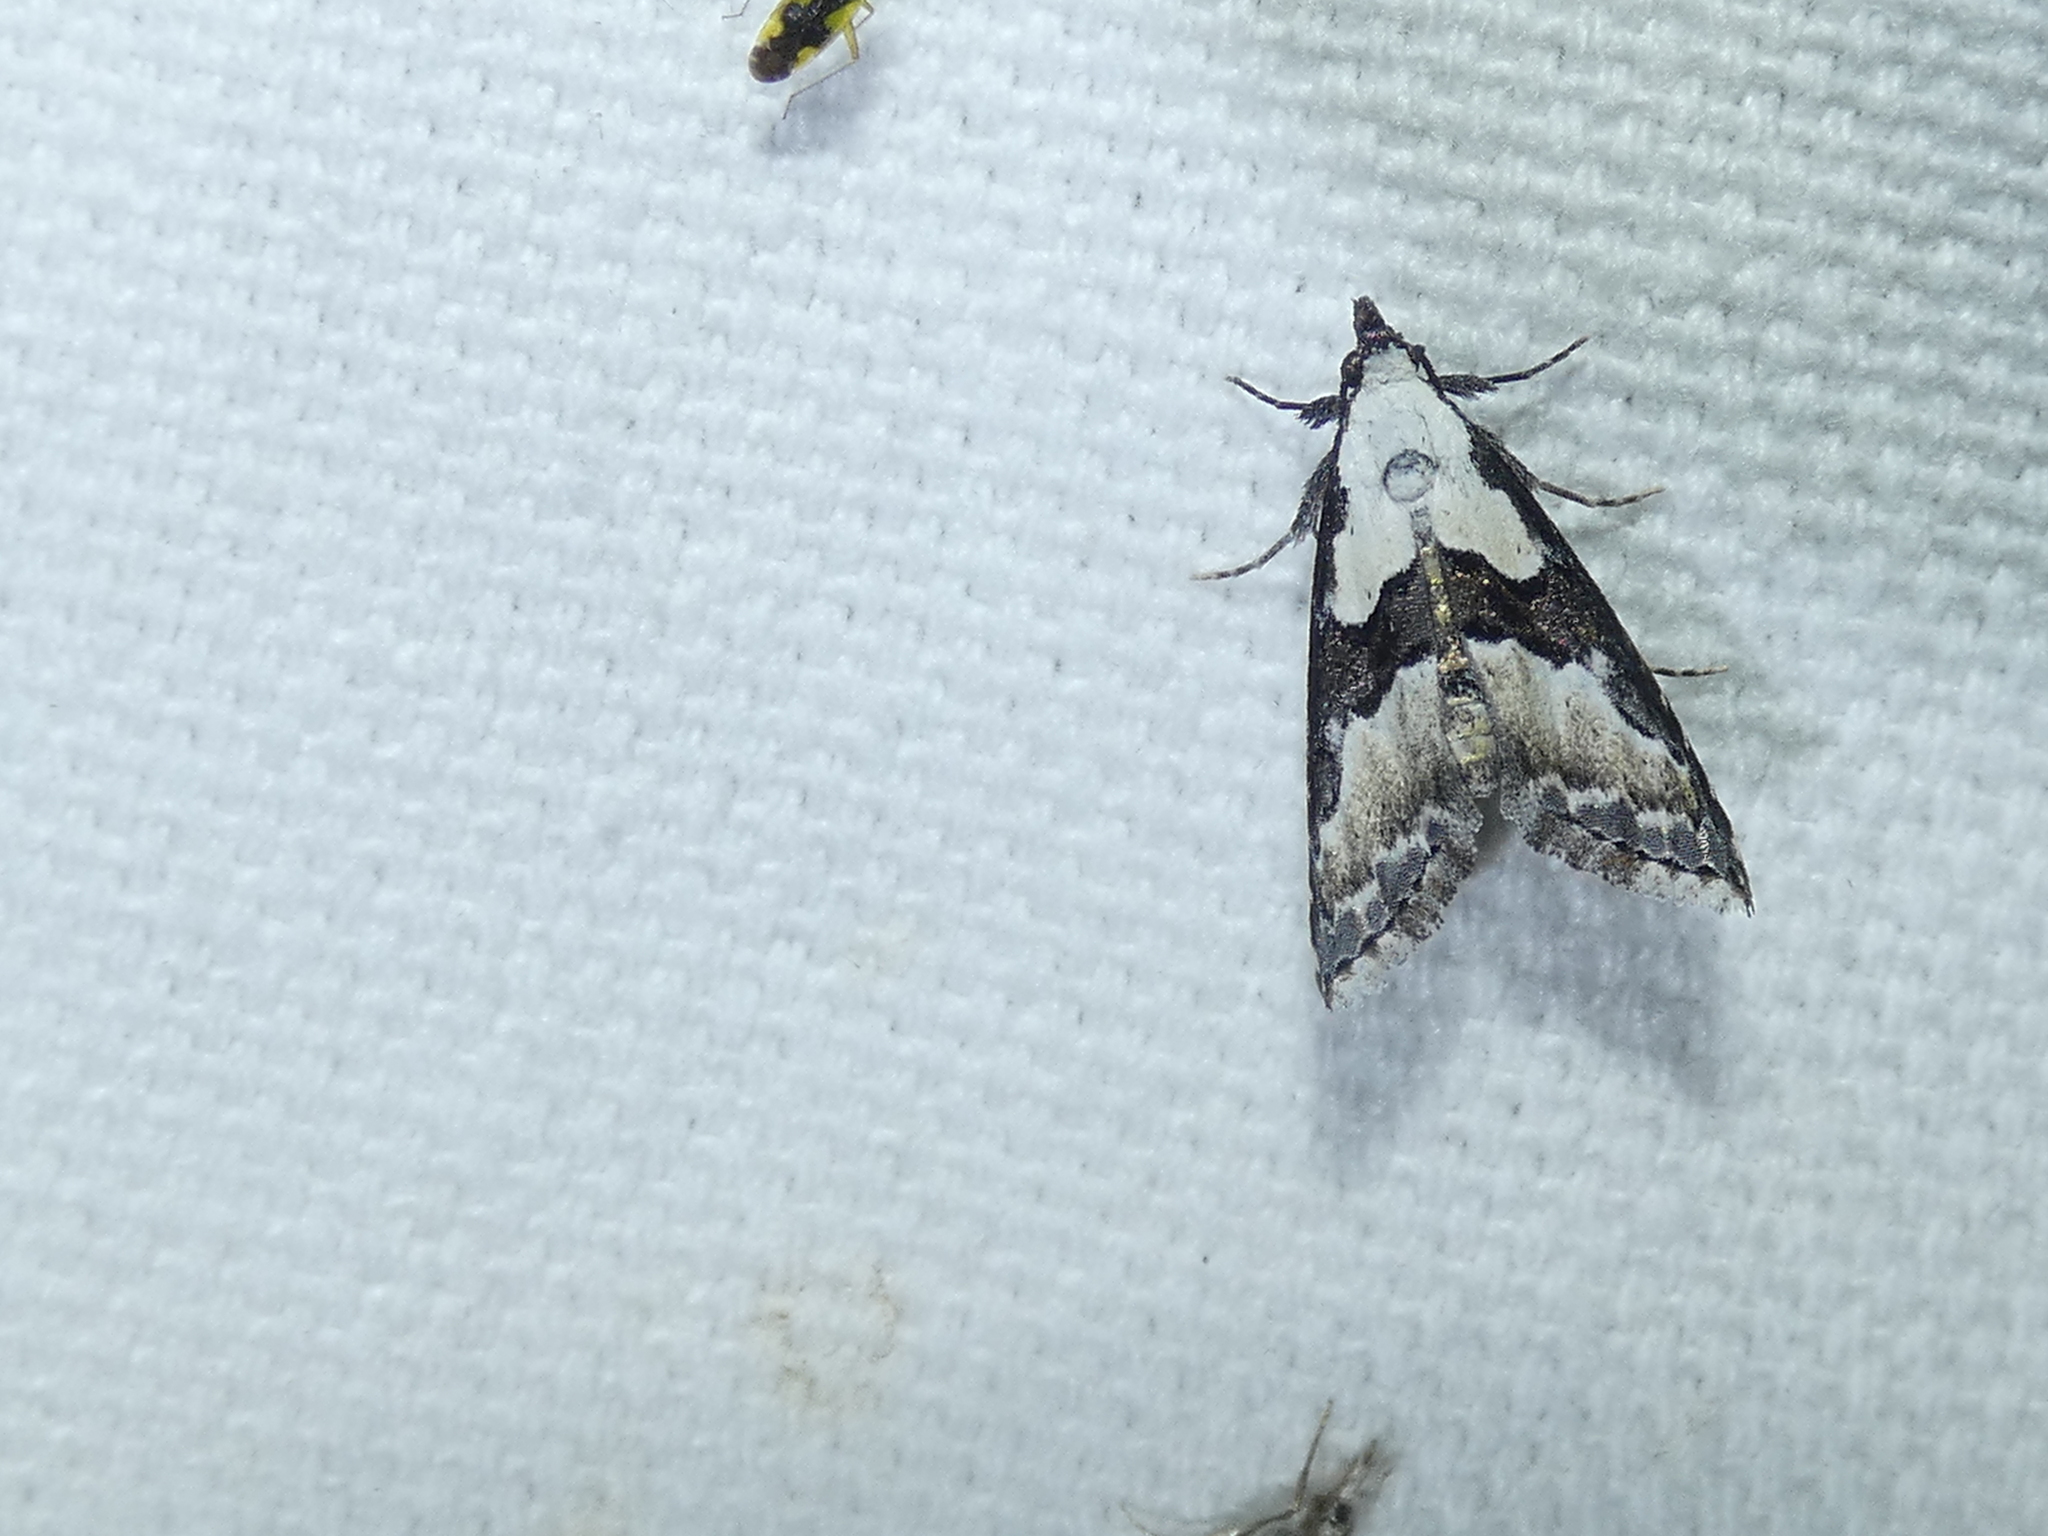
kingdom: Animalia
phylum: Arthropoda
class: Insecta
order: Lepidoptera
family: Noctuidae
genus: Nigetia
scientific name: Nigetia formosalis
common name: Thin-winged owlet
